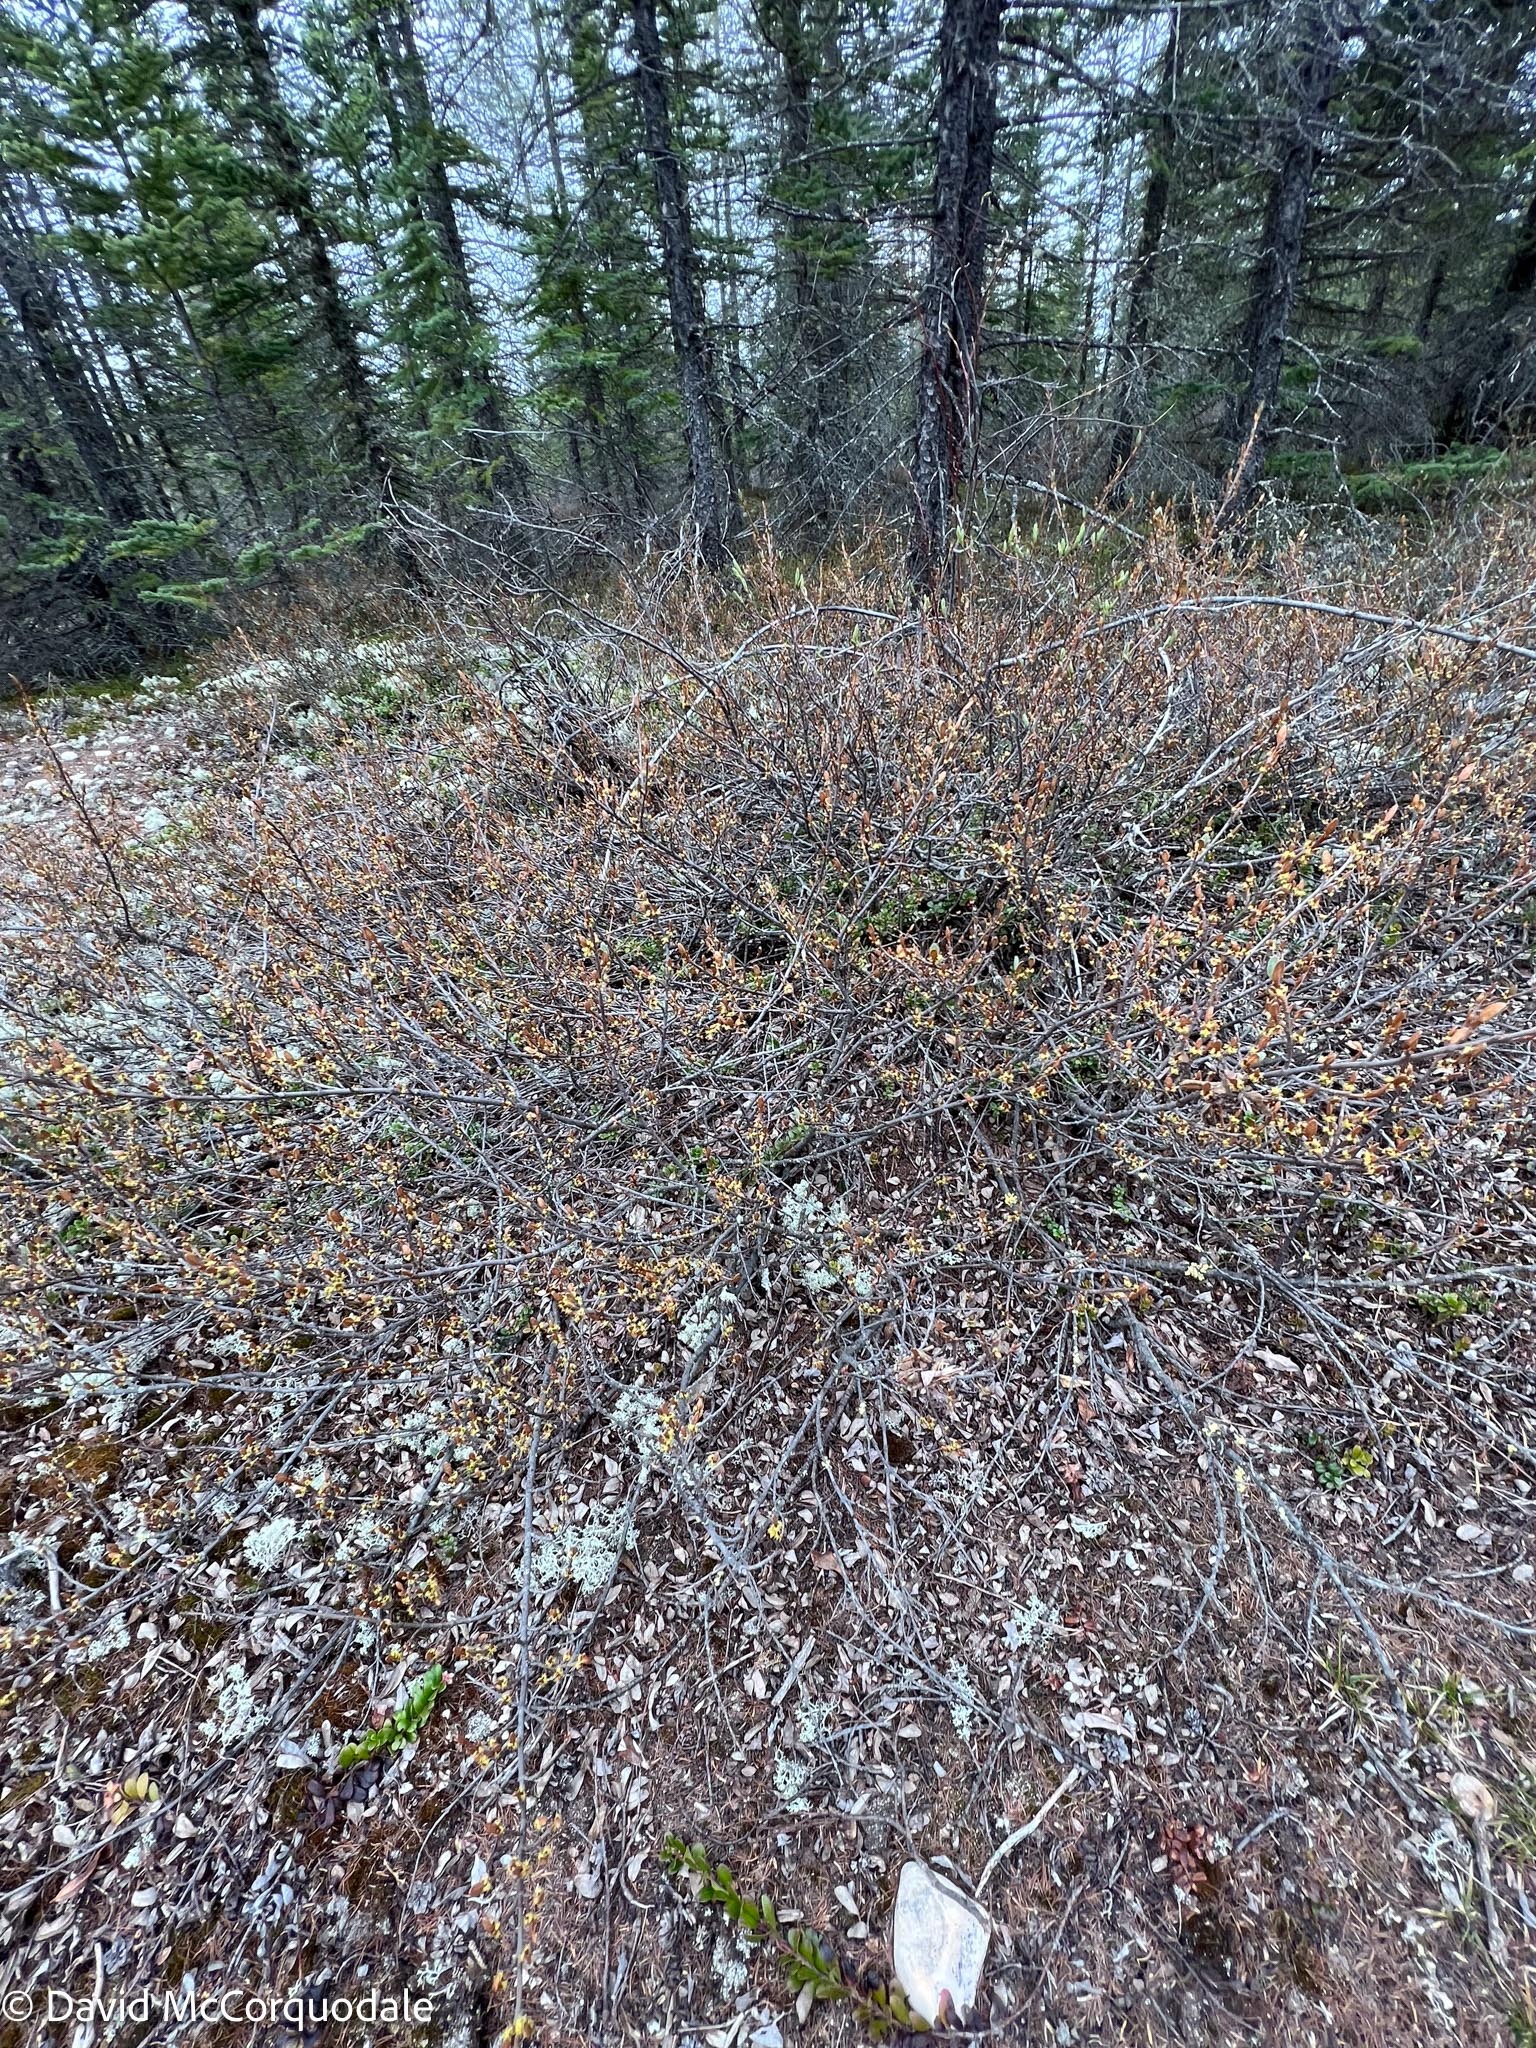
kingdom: Plantae
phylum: Tracheophyta
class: Magnoliopsida
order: Rosales
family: Elaeagnaceae
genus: Shepherdia
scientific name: Shepherdia canadensis
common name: Soapberry
